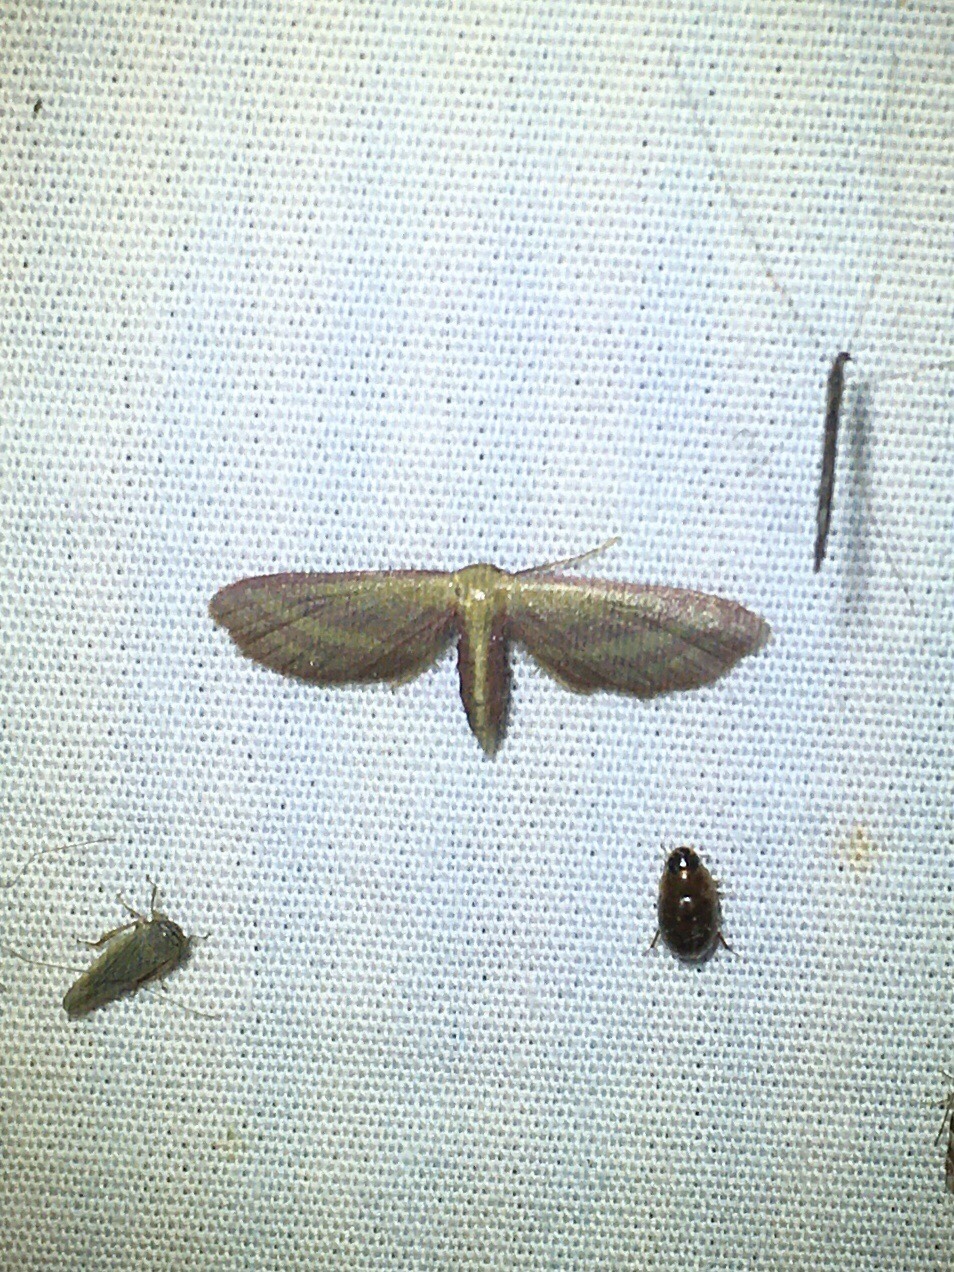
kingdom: Animalia
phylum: Arthropoda
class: Insecta
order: Lepidoptera
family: Geometridae
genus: Leptostales
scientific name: Leptostales laevitaria
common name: Raspberry wave moth
